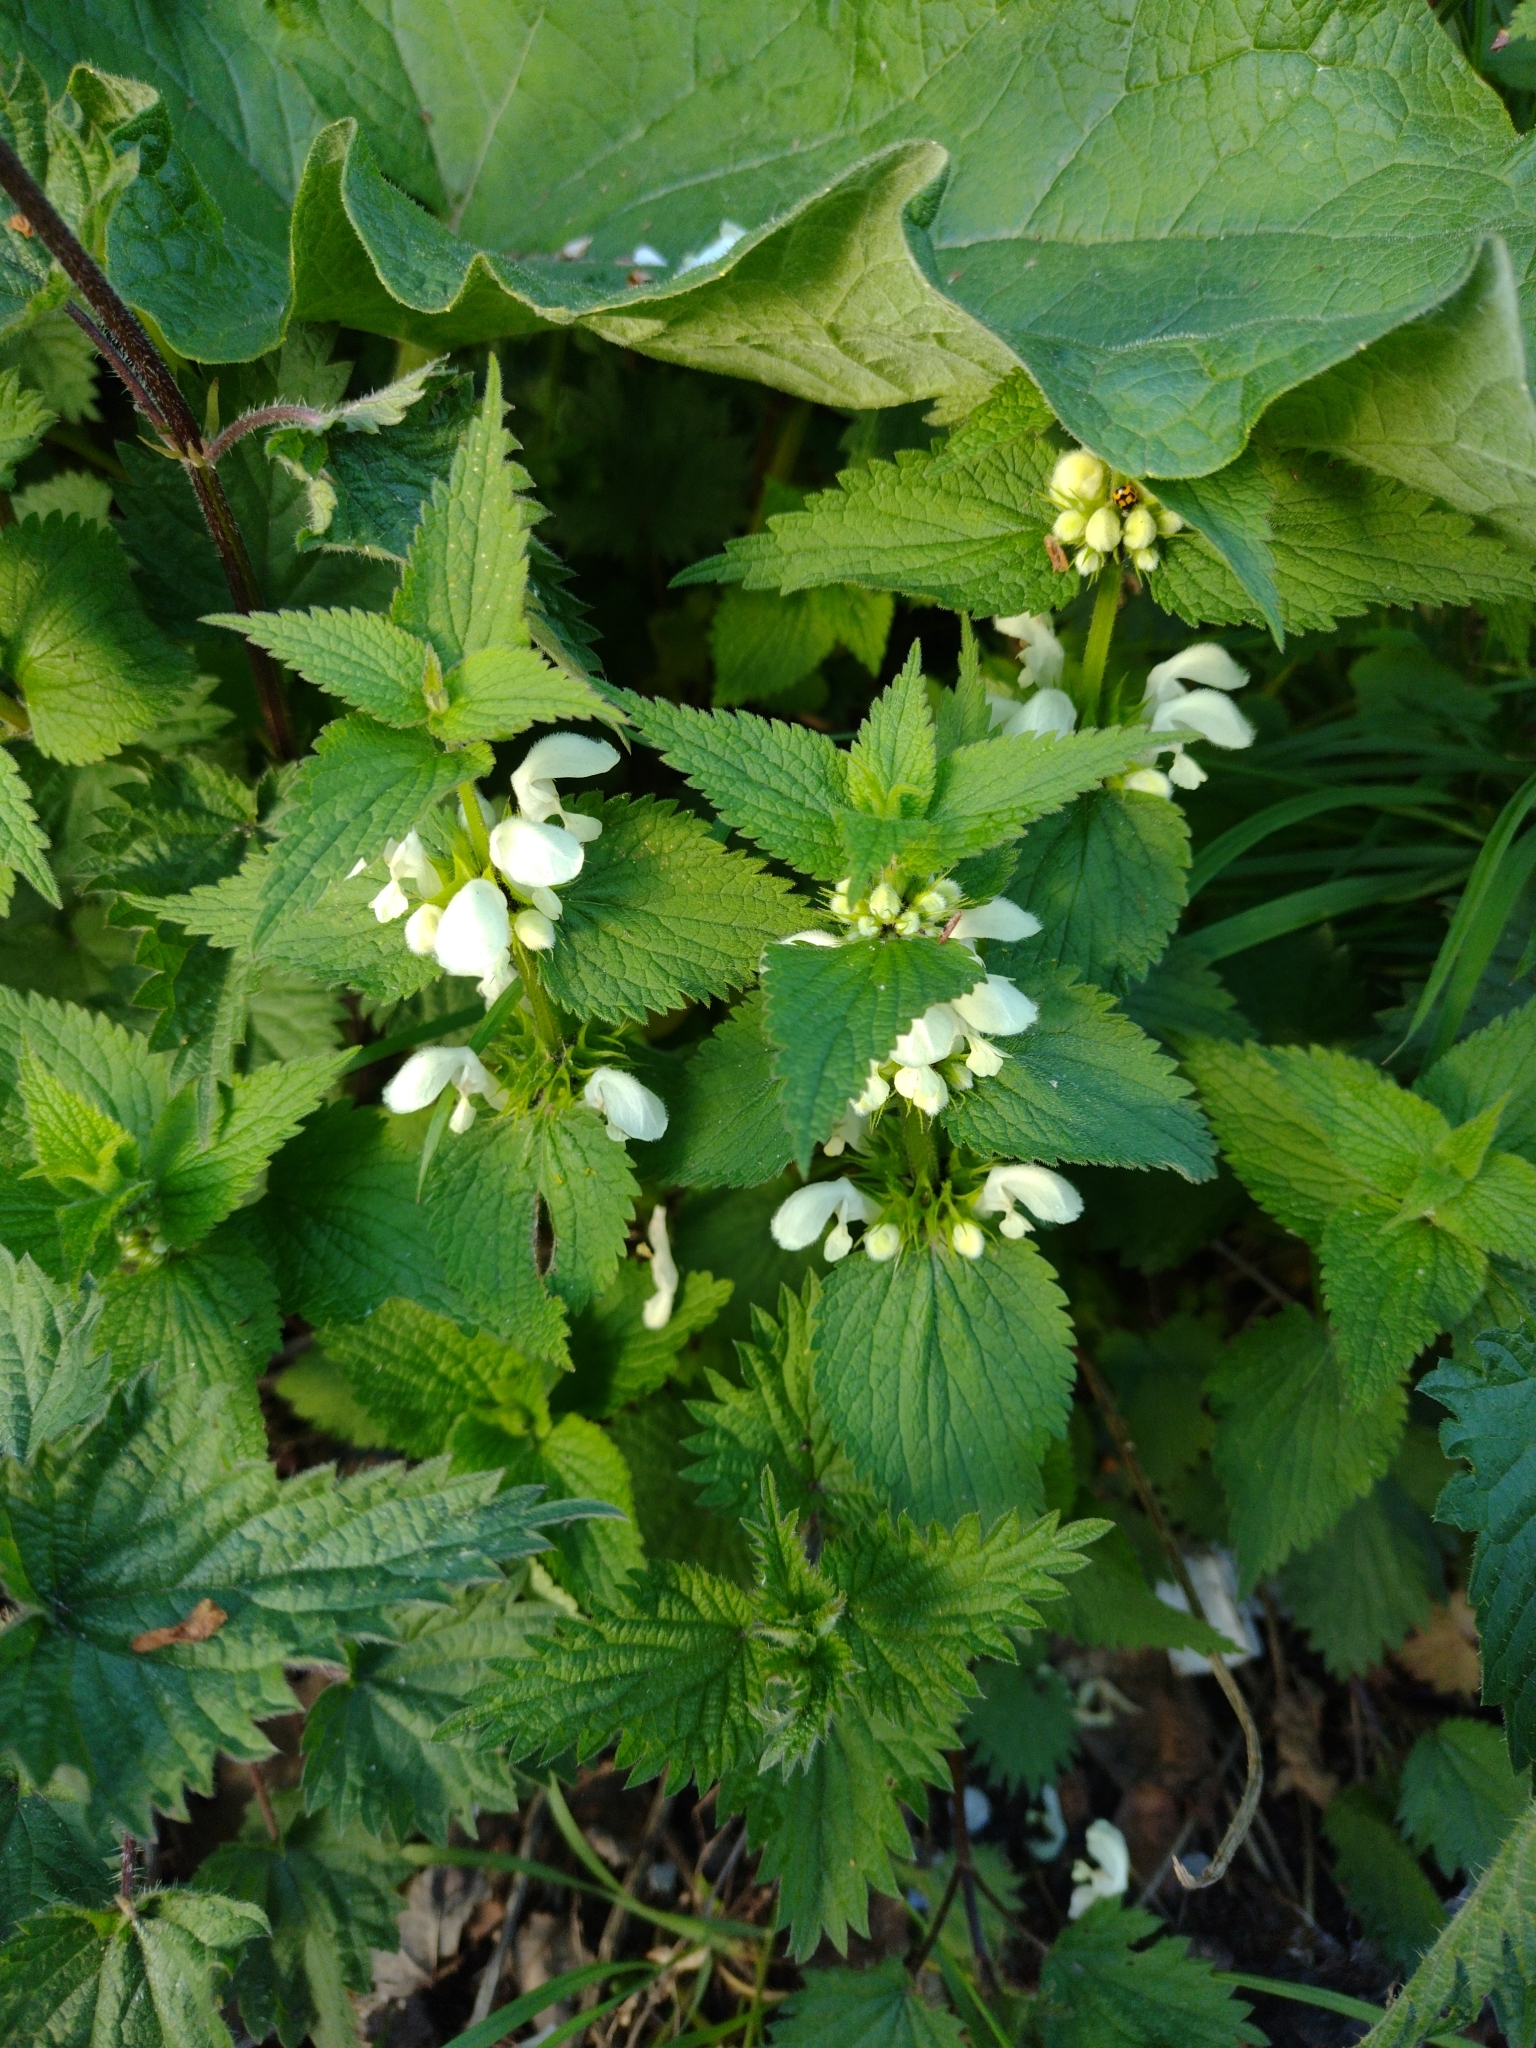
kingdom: Plantae
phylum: Tracheophyta
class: Magnoliopsida
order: Lamiales
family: Lamiaceae
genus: Lamium
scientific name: Lamium album
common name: White dead-nettle
